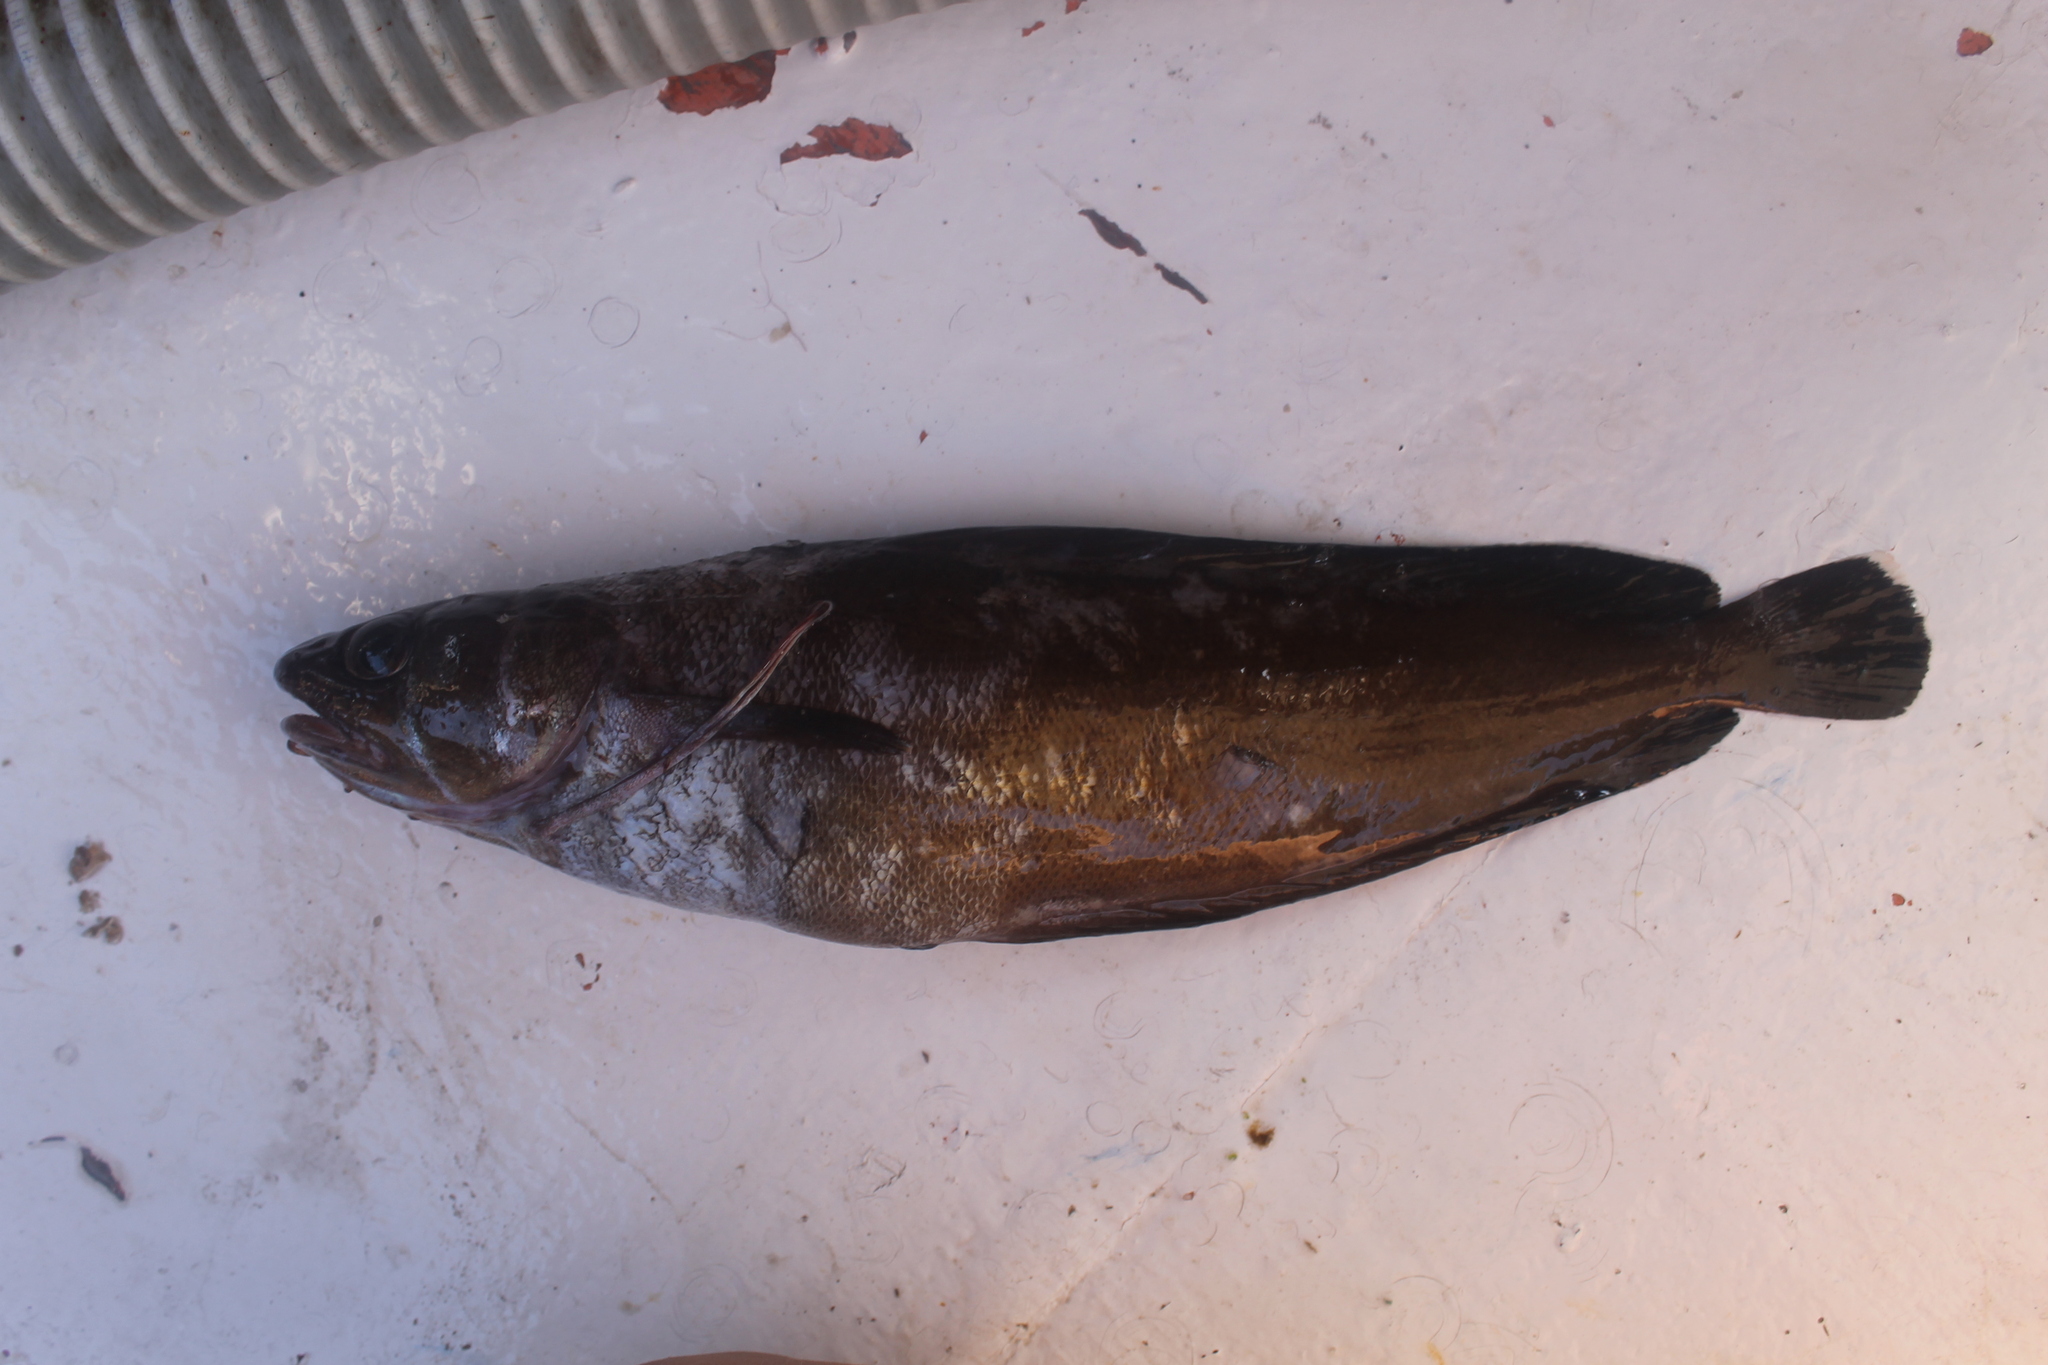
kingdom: Animalia
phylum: Chordata
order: Gadiformes
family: Phycidae
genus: Phycis
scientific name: Phycis phycis
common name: Forkbeard
